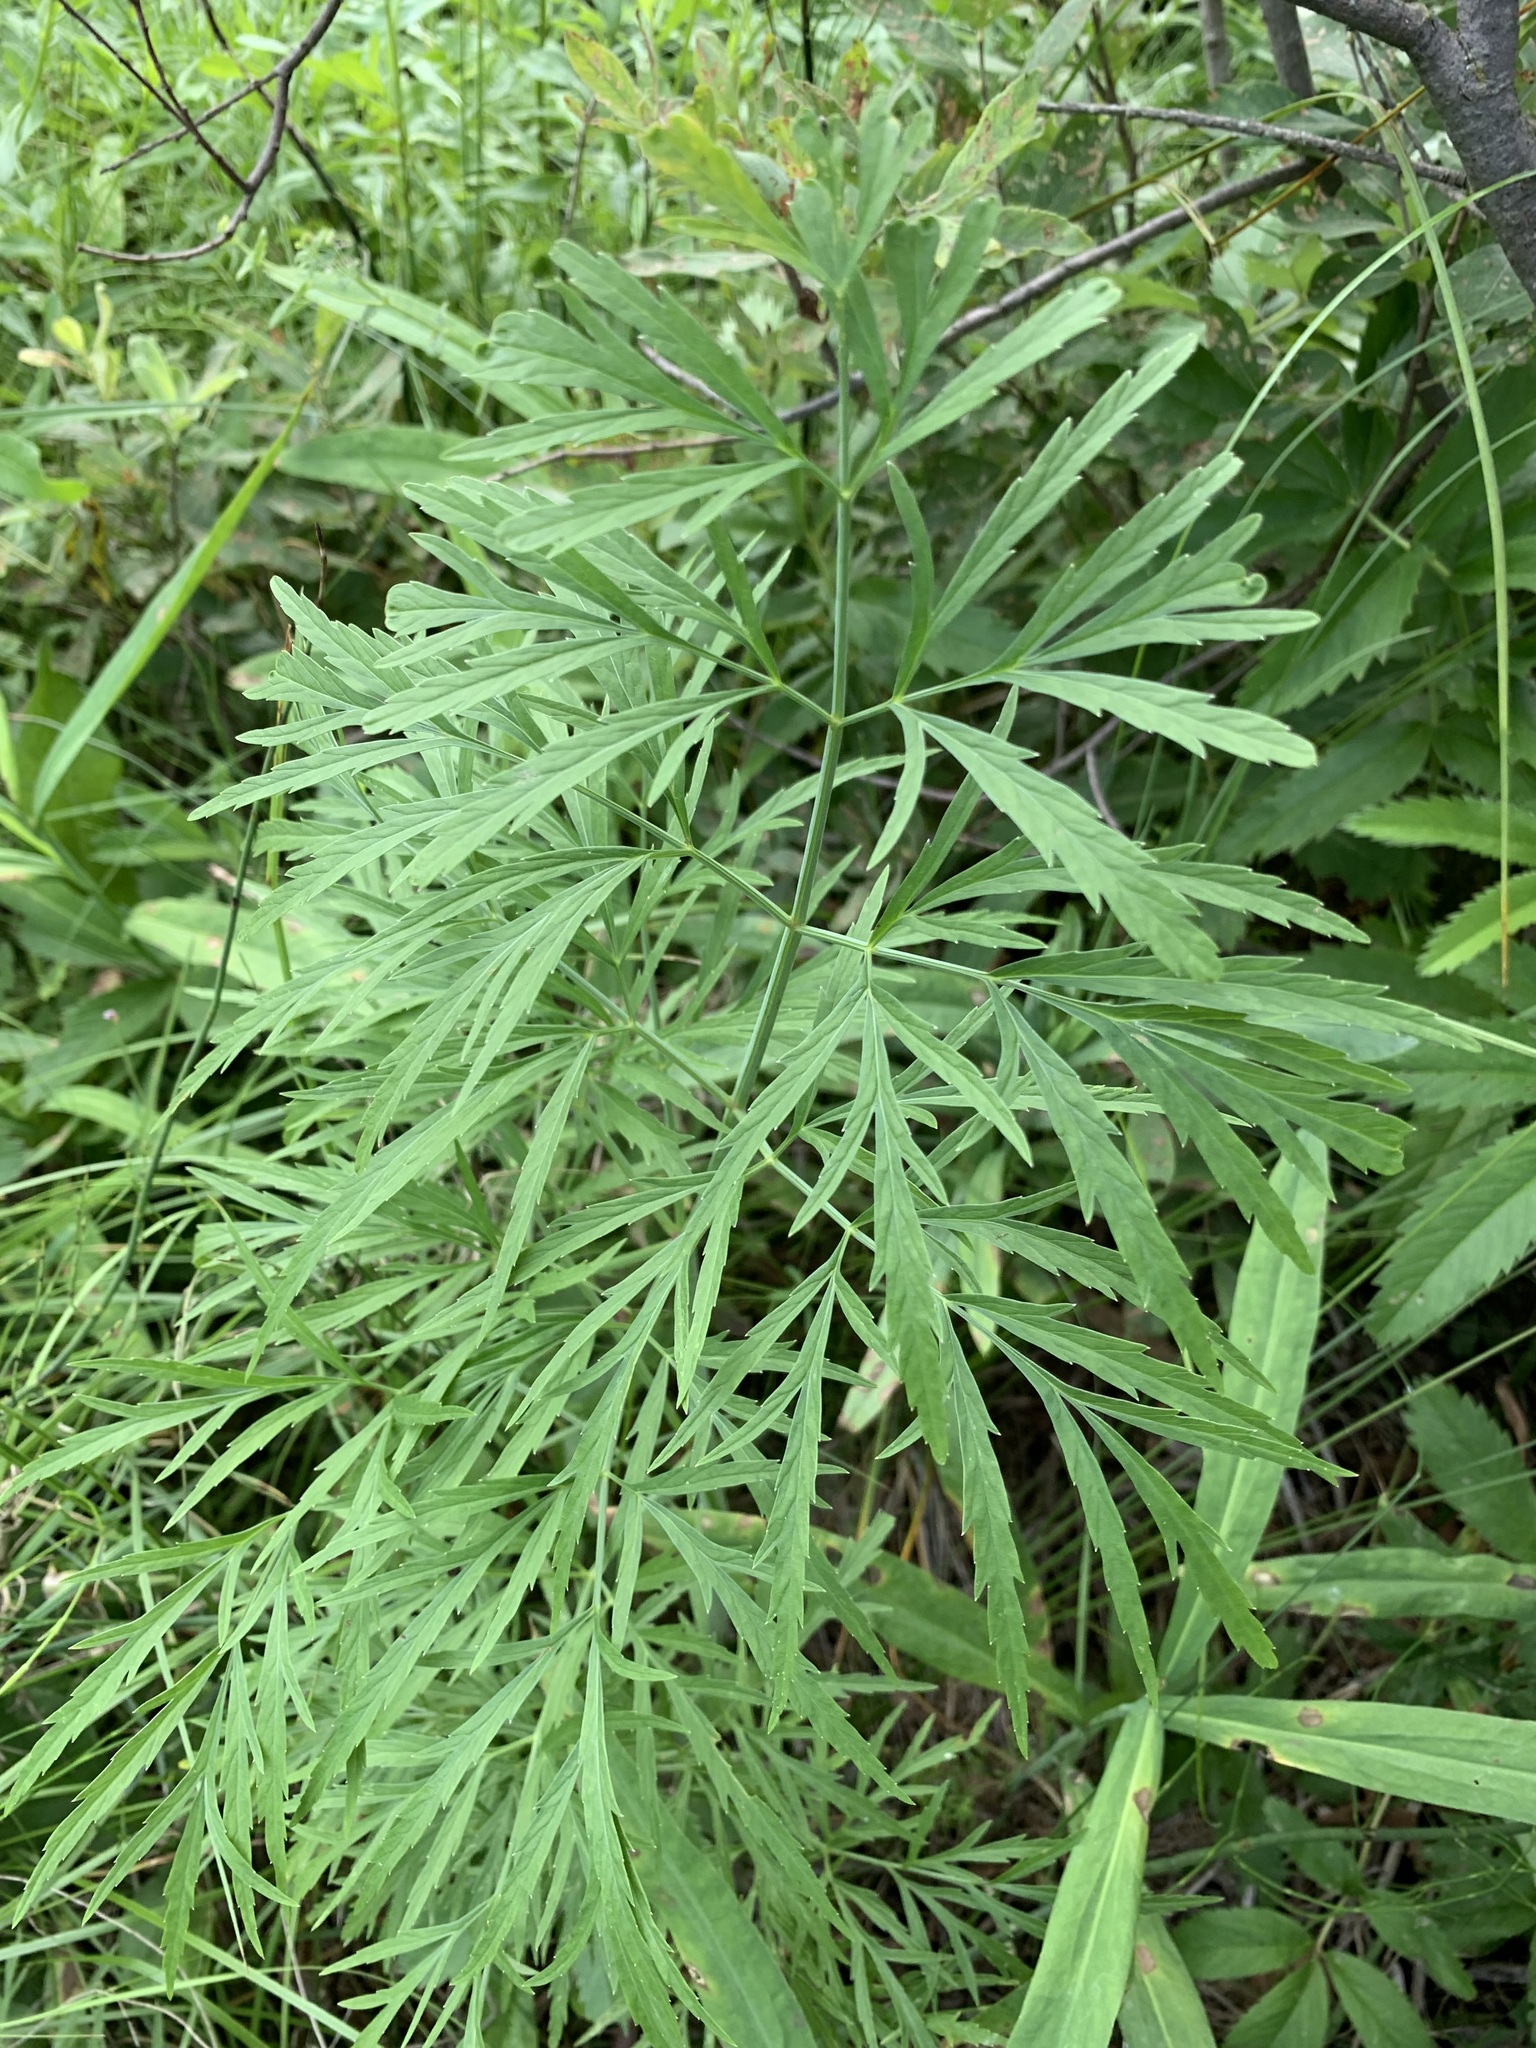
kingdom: Plantae
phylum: Tracheophyta
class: Magnoliopsida
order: Apiales
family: Apiaceae
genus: Cicuta
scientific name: Cicuta virosa
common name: Cowbane
